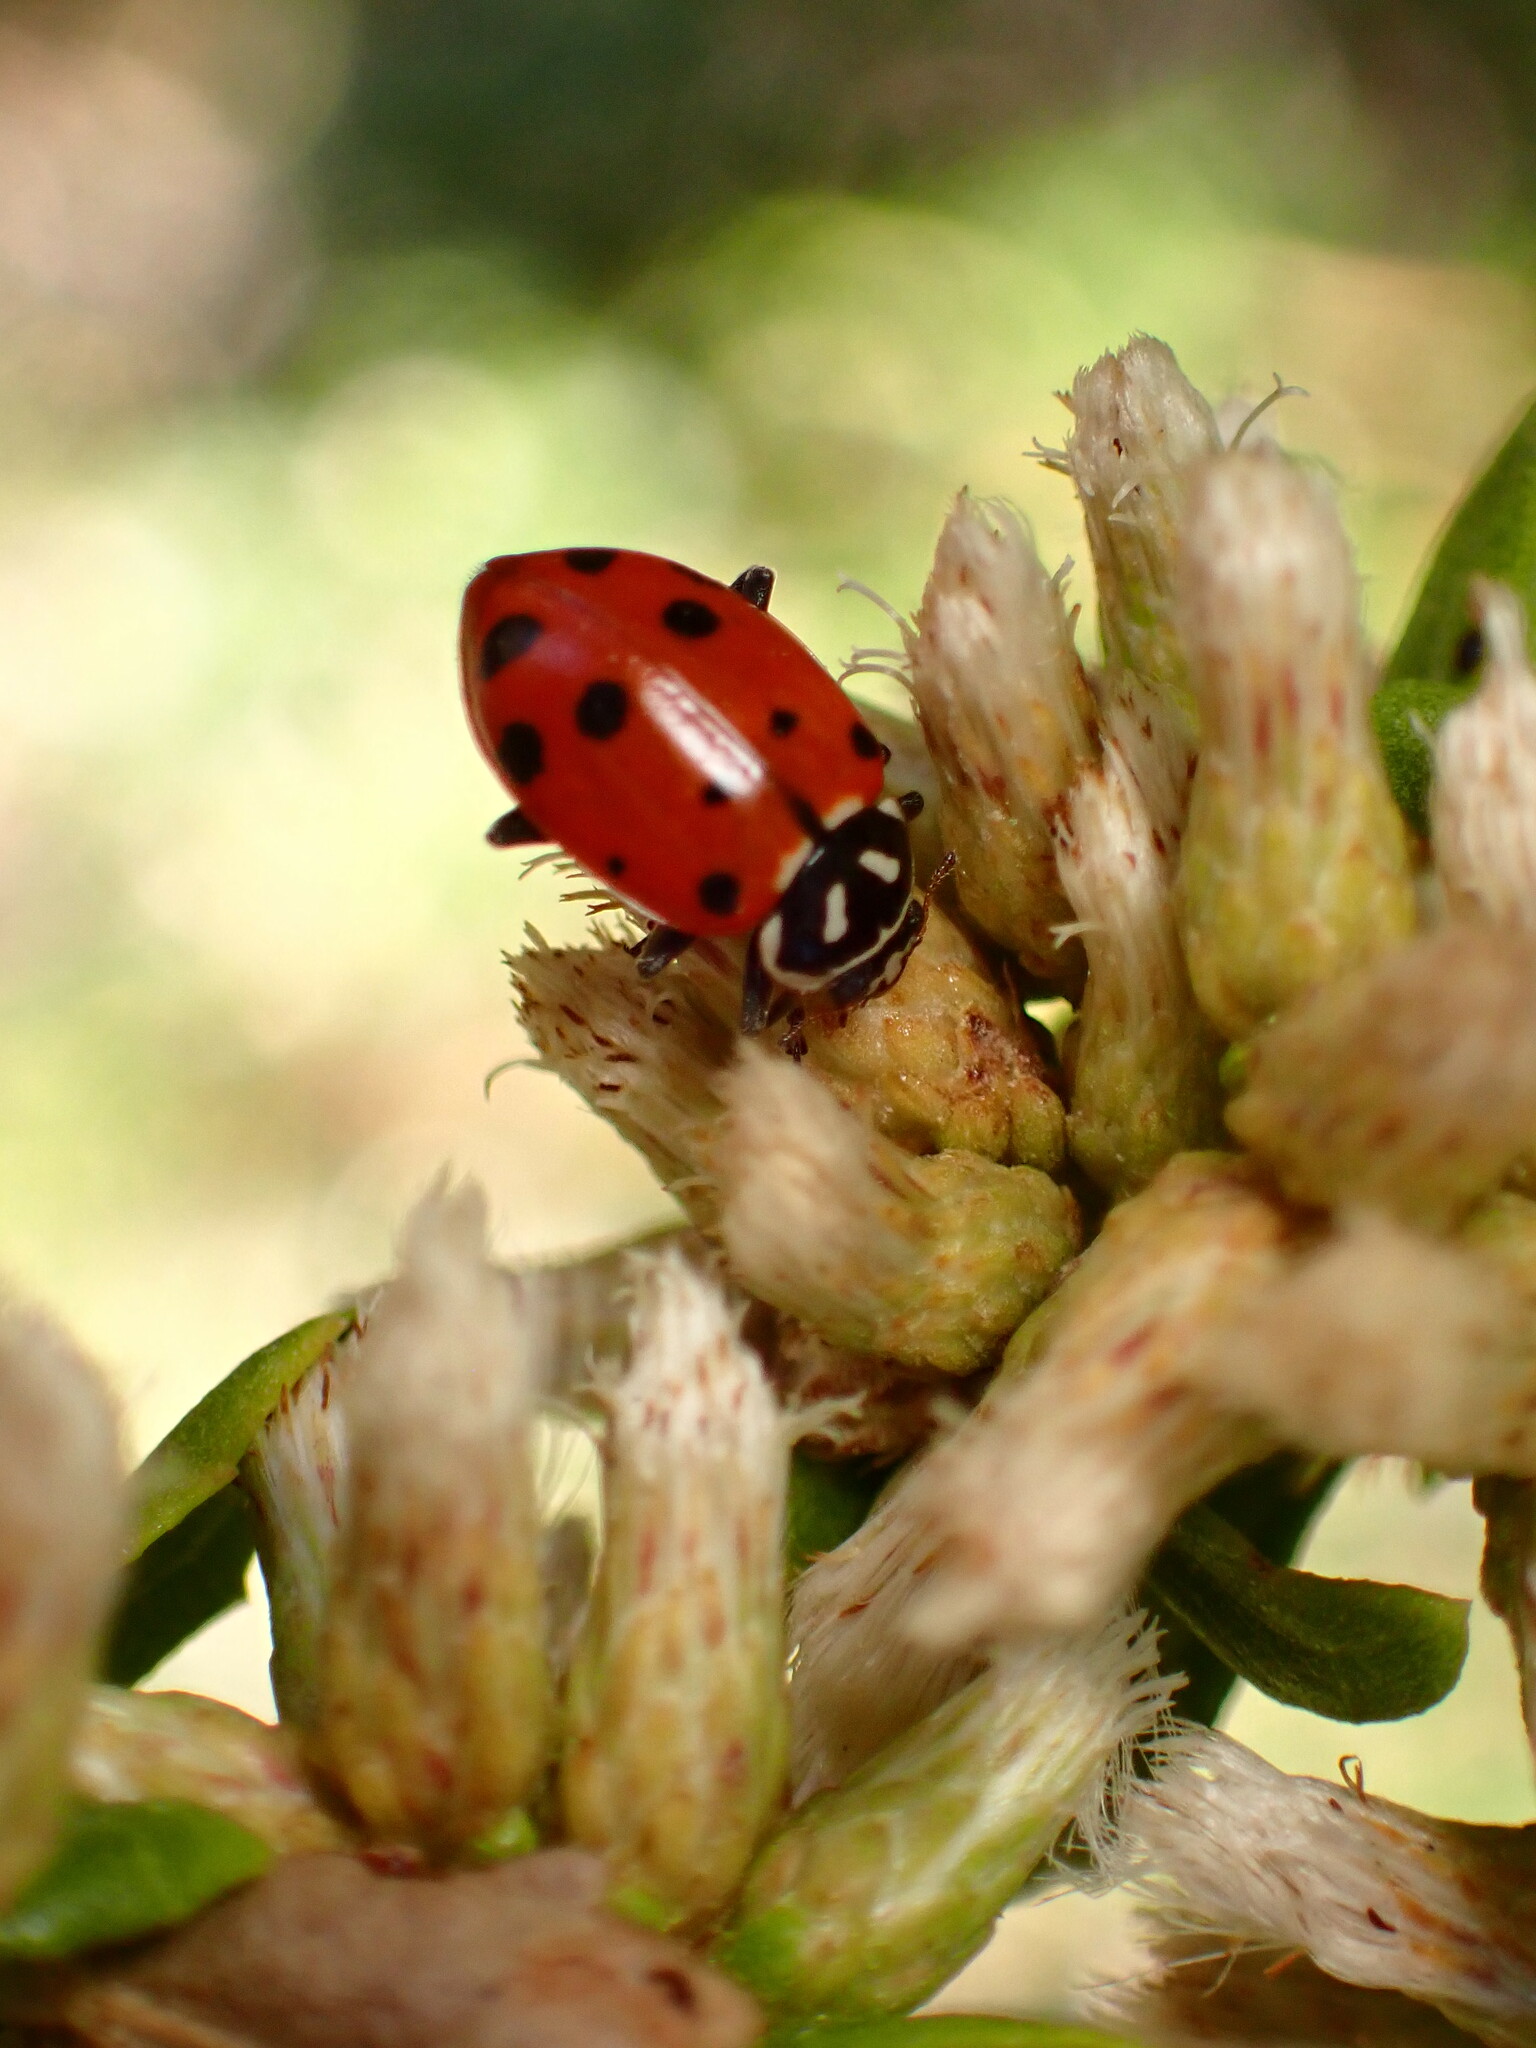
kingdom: Animalia
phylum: Arthropoda
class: Insecta
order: Coleoptera
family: Coccinellidae
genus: Hippodamia
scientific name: Hippodamia convergens
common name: Convergent lady beetle
